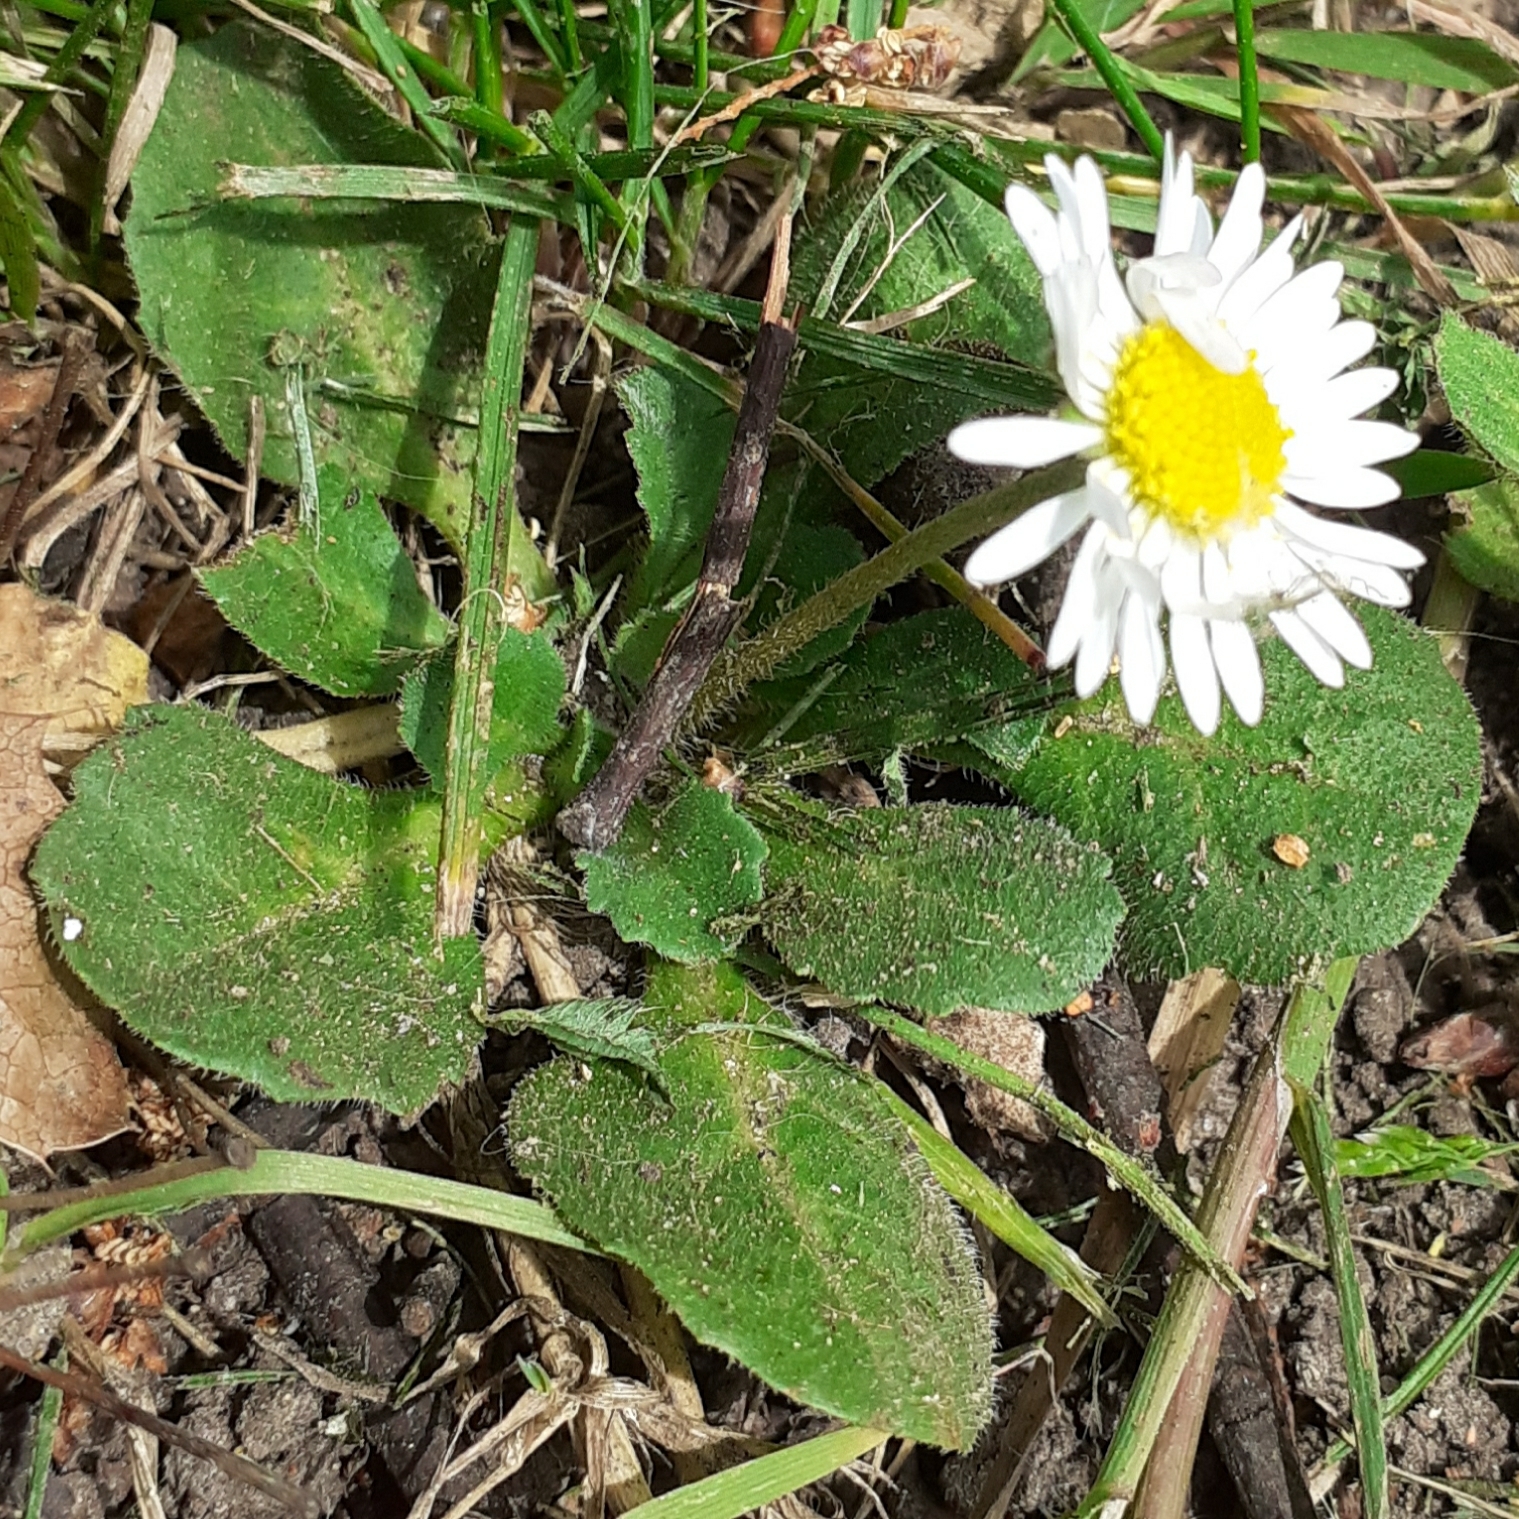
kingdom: Plantae
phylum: Tracheophyta
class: Magnoliopsida
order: Asterales
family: Asteraceae
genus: Bellis
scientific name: Bellis perennis
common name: Lawndaisy
